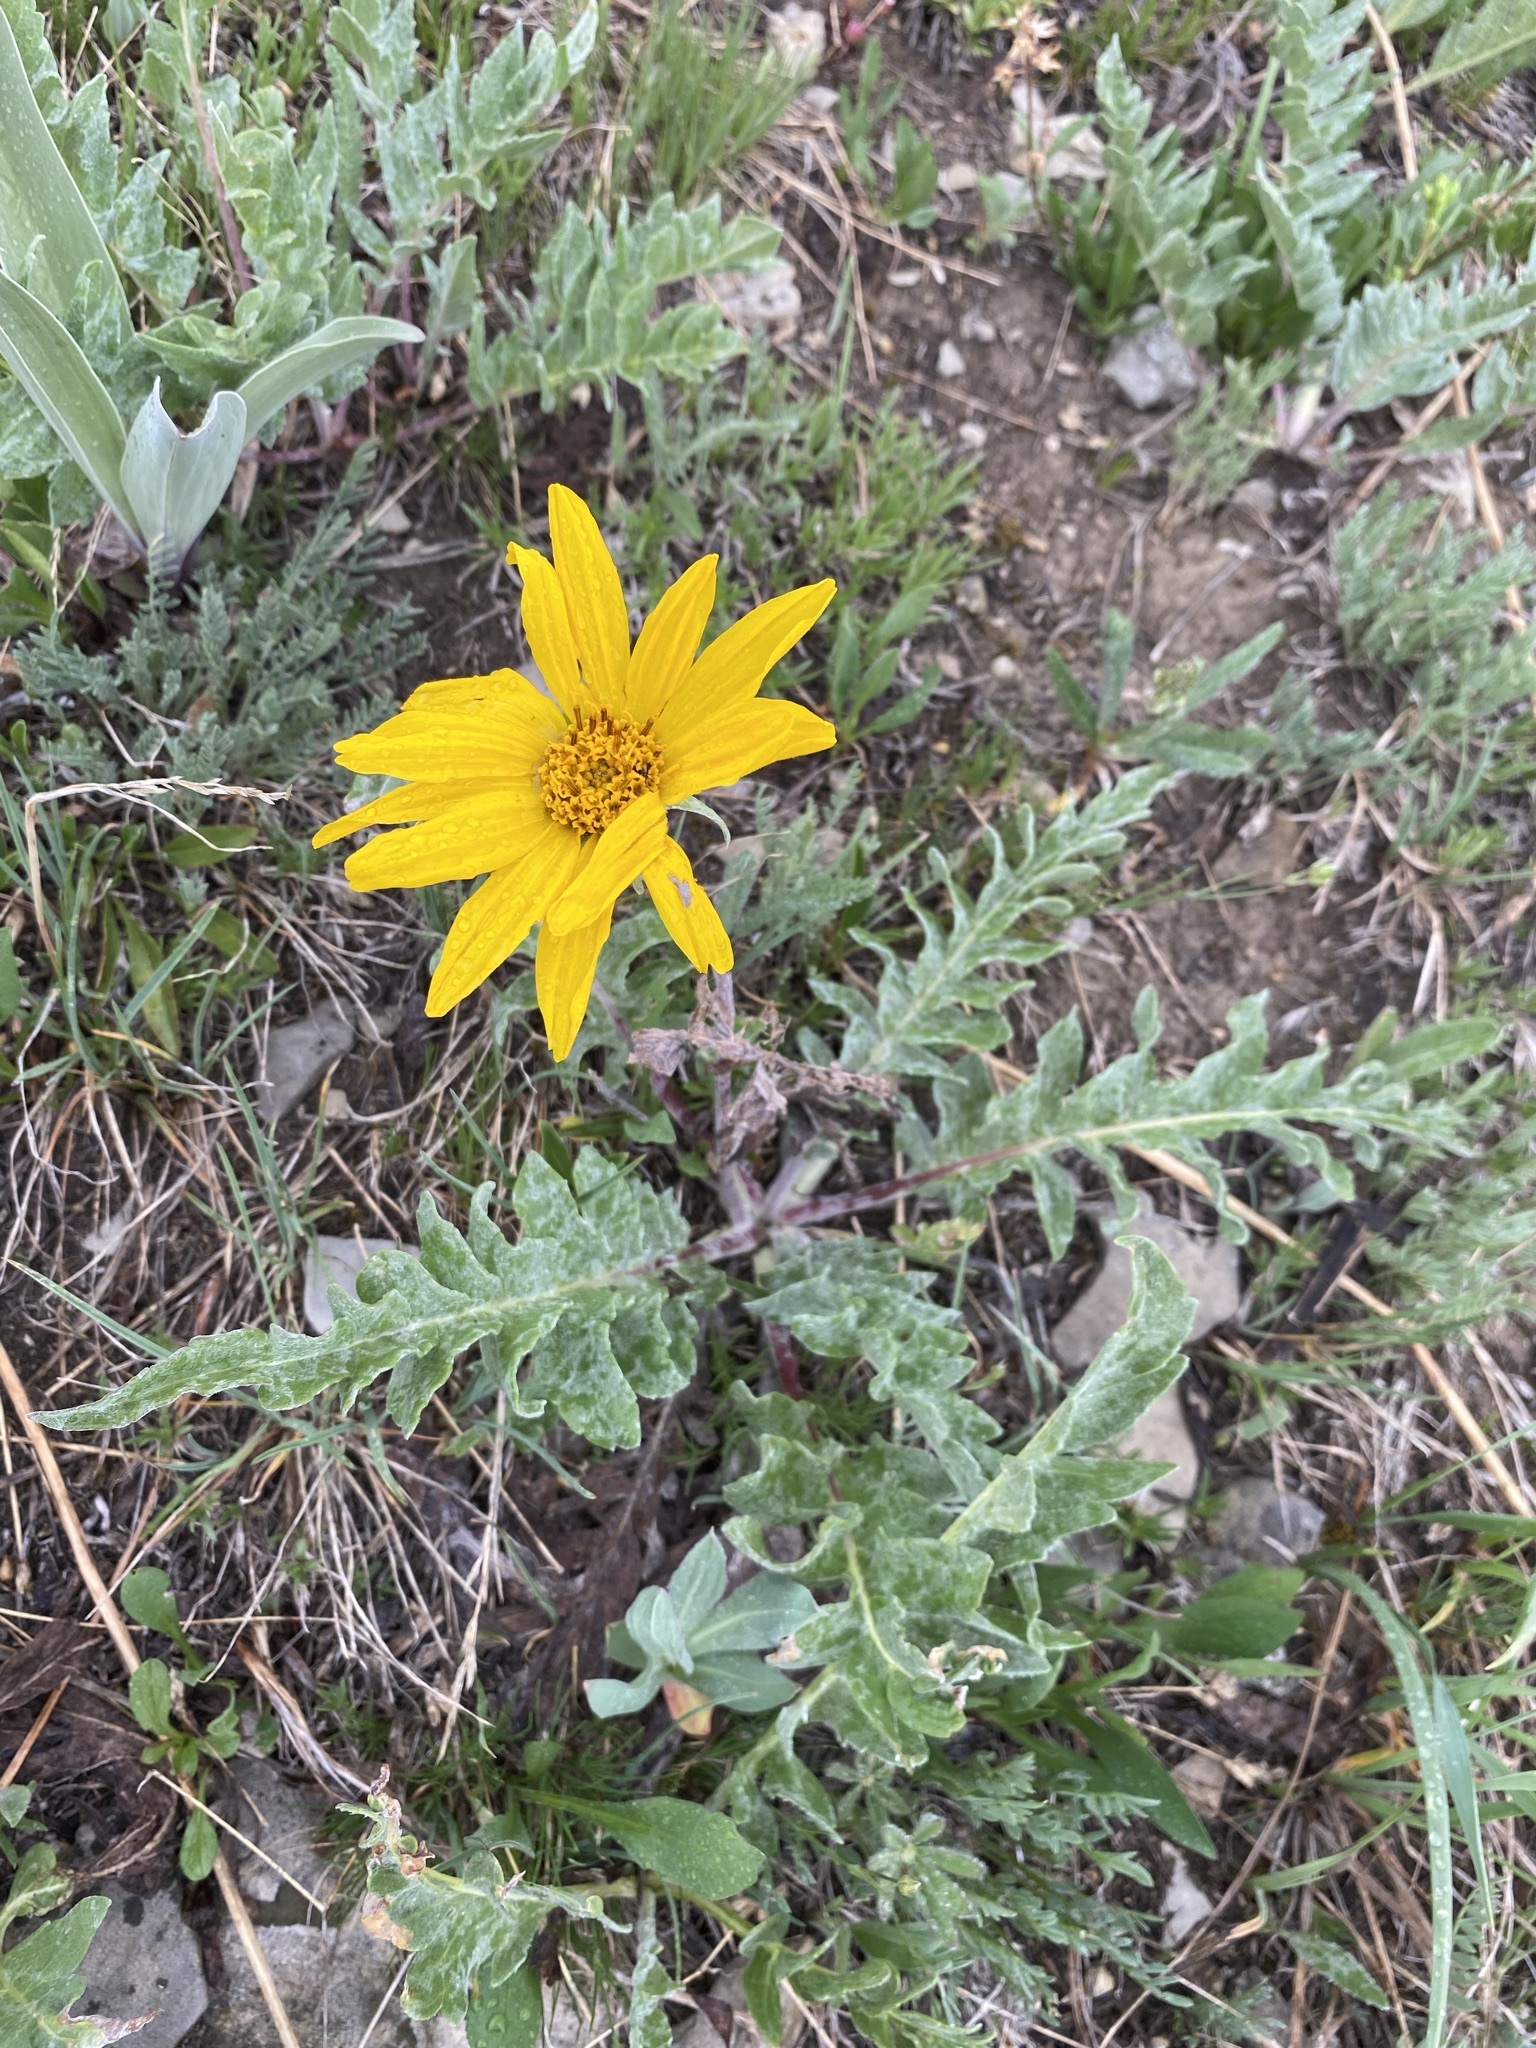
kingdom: Plantae
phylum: Tracheophyta
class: Magnoliopsida
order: Asterales
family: Asteraceae
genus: Balsamorhiza
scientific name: Balsamorhiza incana
